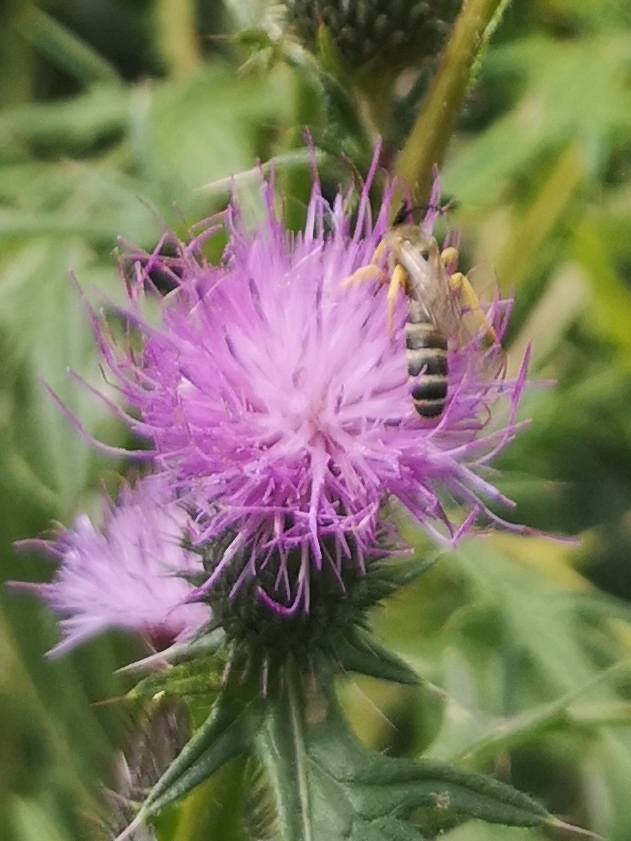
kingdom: Plantae
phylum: Tracheophyta
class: Magnoliopsida
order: Asterales
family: Asteraceae
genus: Cirsium
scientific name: Cirsium vulgare
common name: Bull thistle
